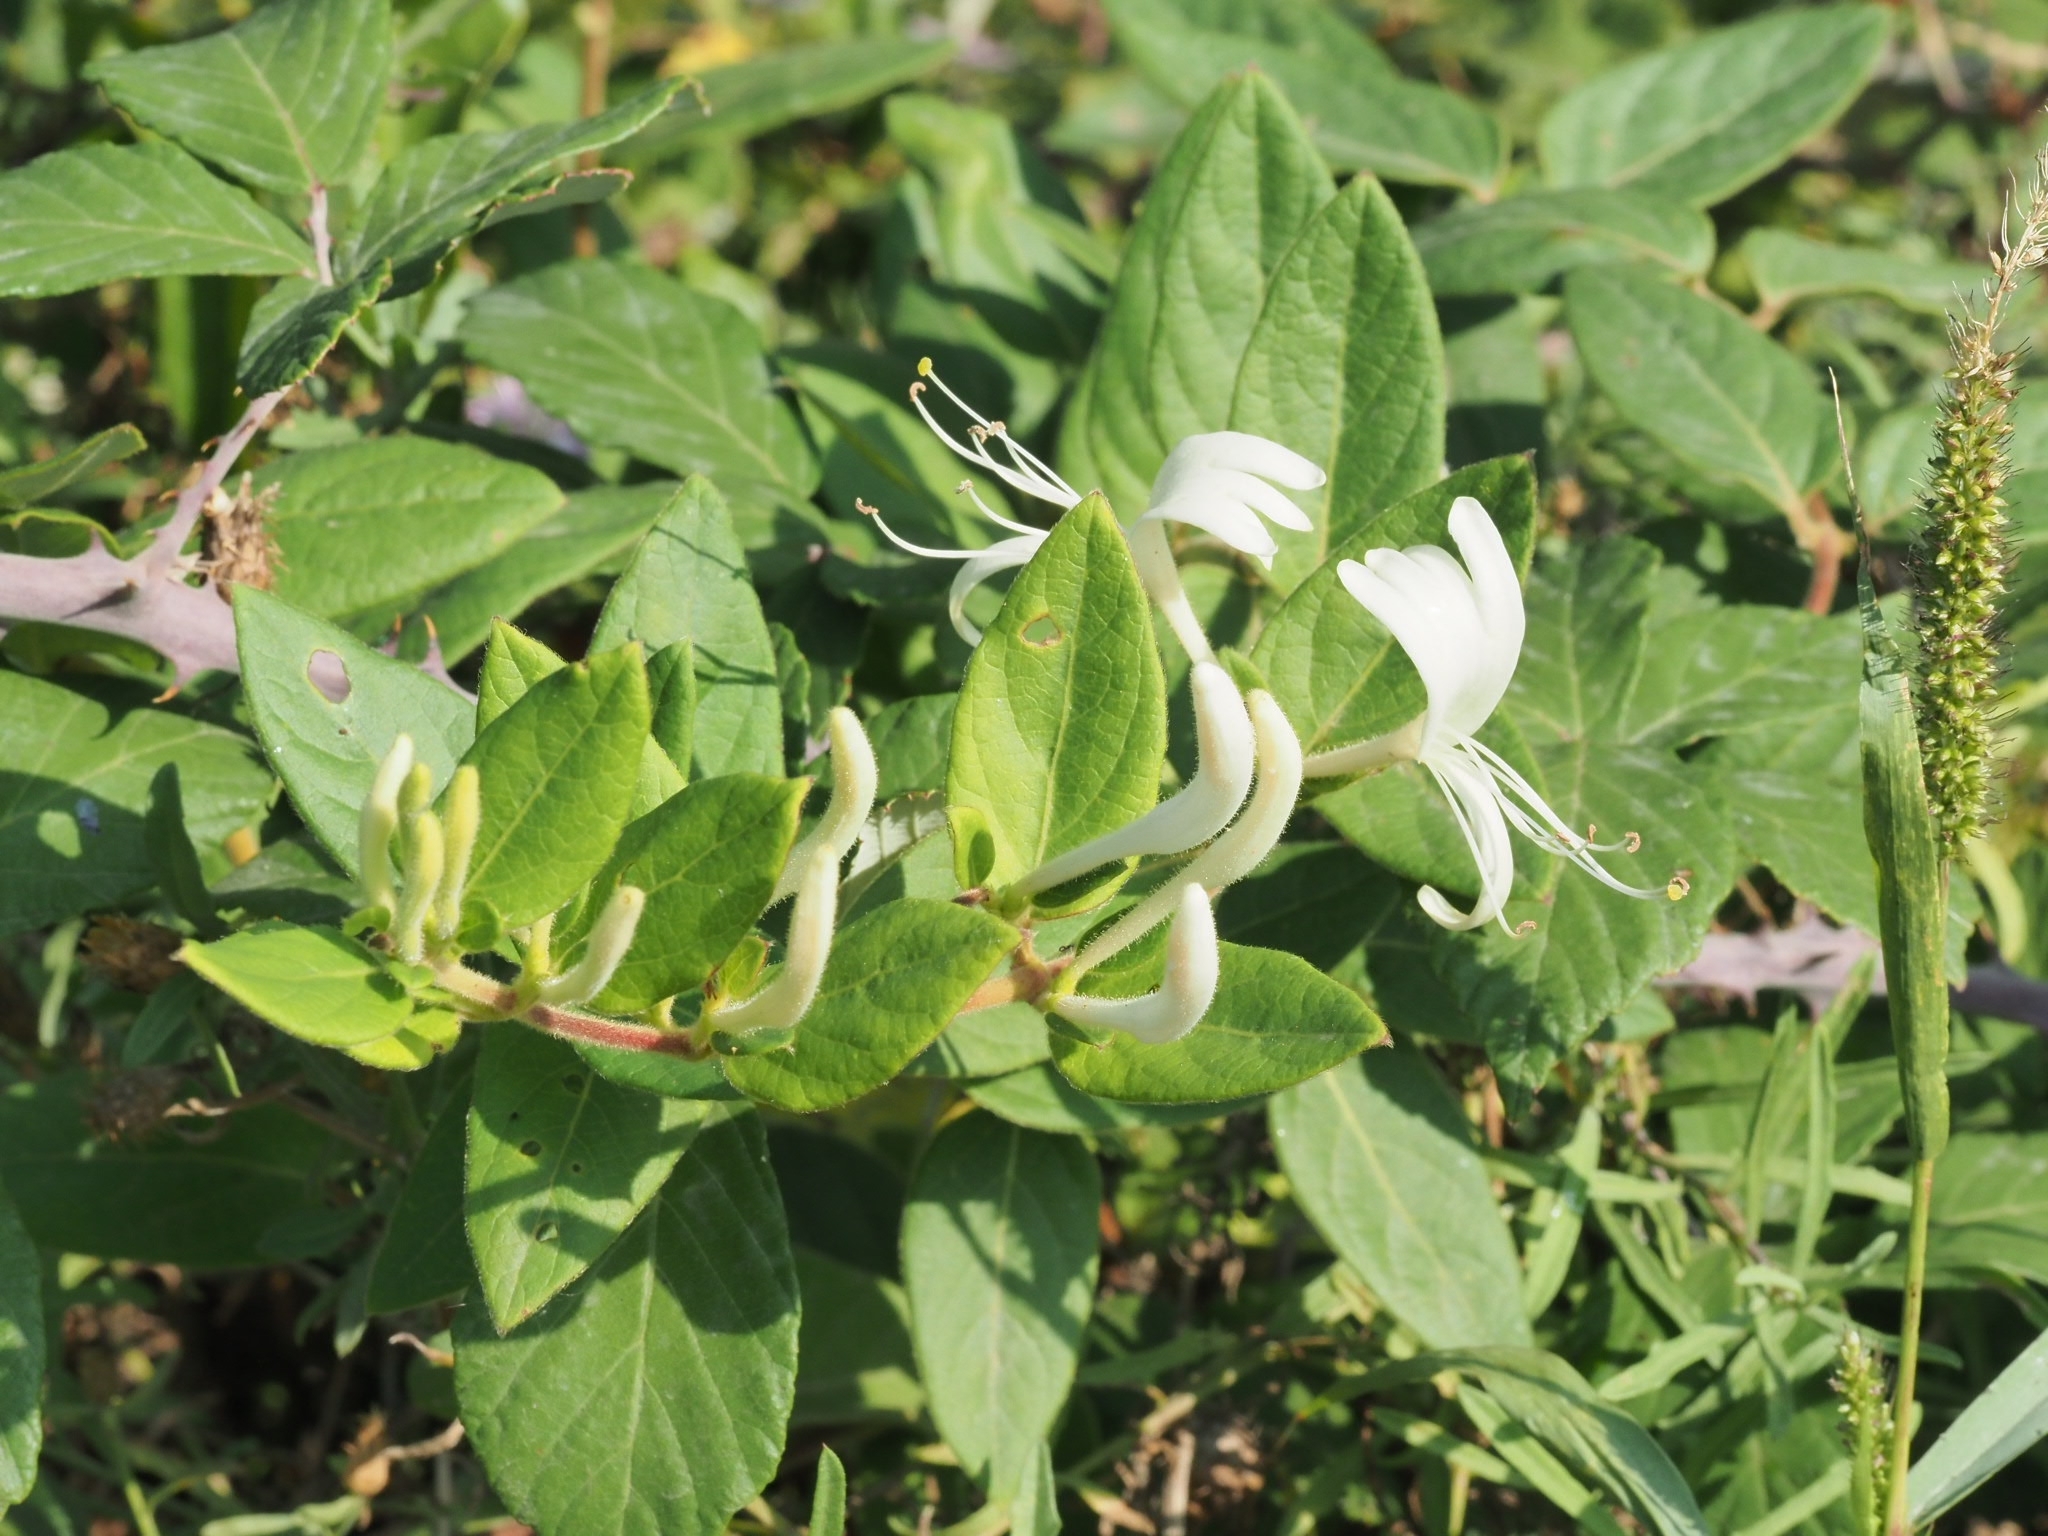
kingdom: Plantae
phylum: Tracheophyta
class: Magnoliopsida
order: Dipsacales
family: Caprifoliaceae
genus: Lonicera
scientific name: Lonicera japonica
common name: Japanese honeysuckle
